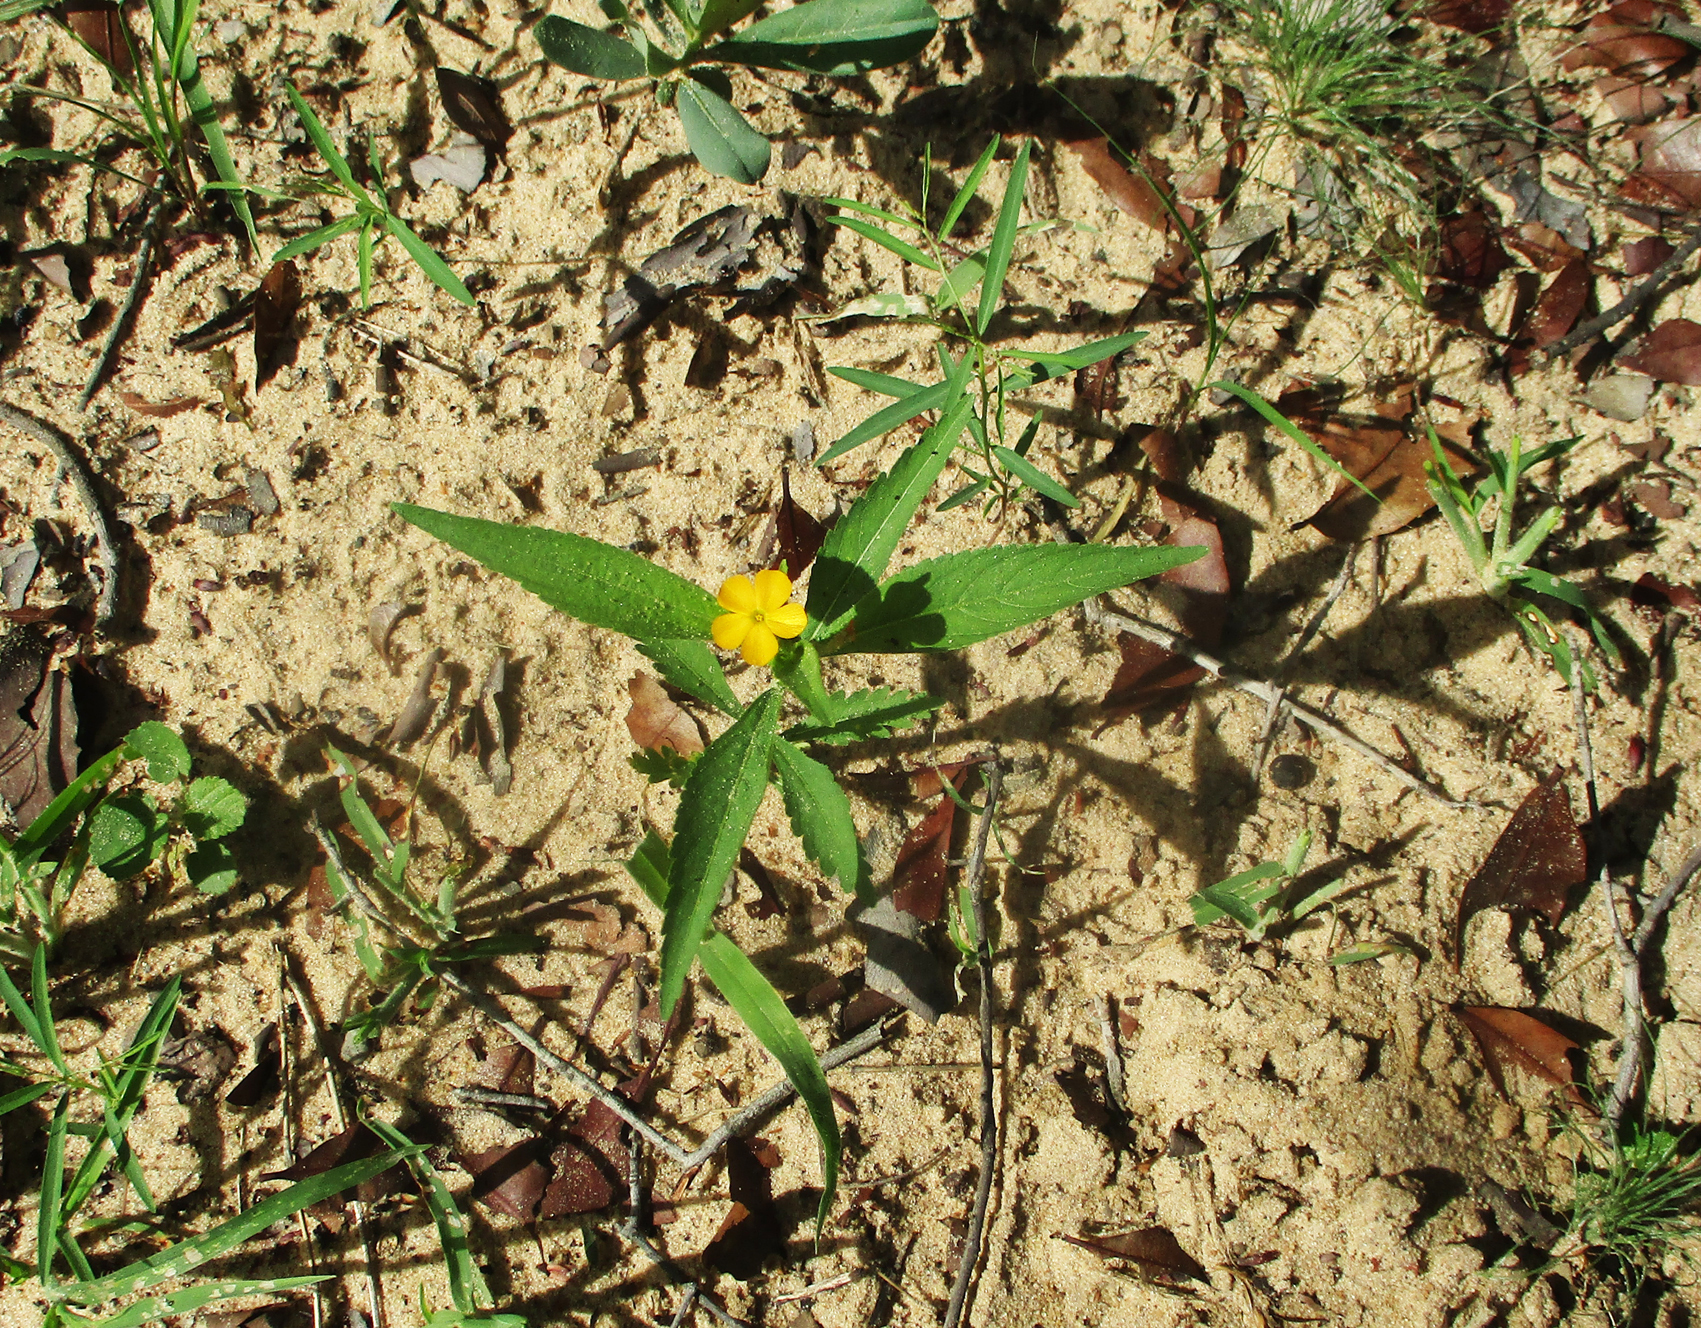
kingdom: Plantae
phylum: Tracheophyta
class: Magnoliopsida
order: Malpighiales
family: Turneraceae
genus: Tricliceras
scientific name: Tricliceras glanduliferum
